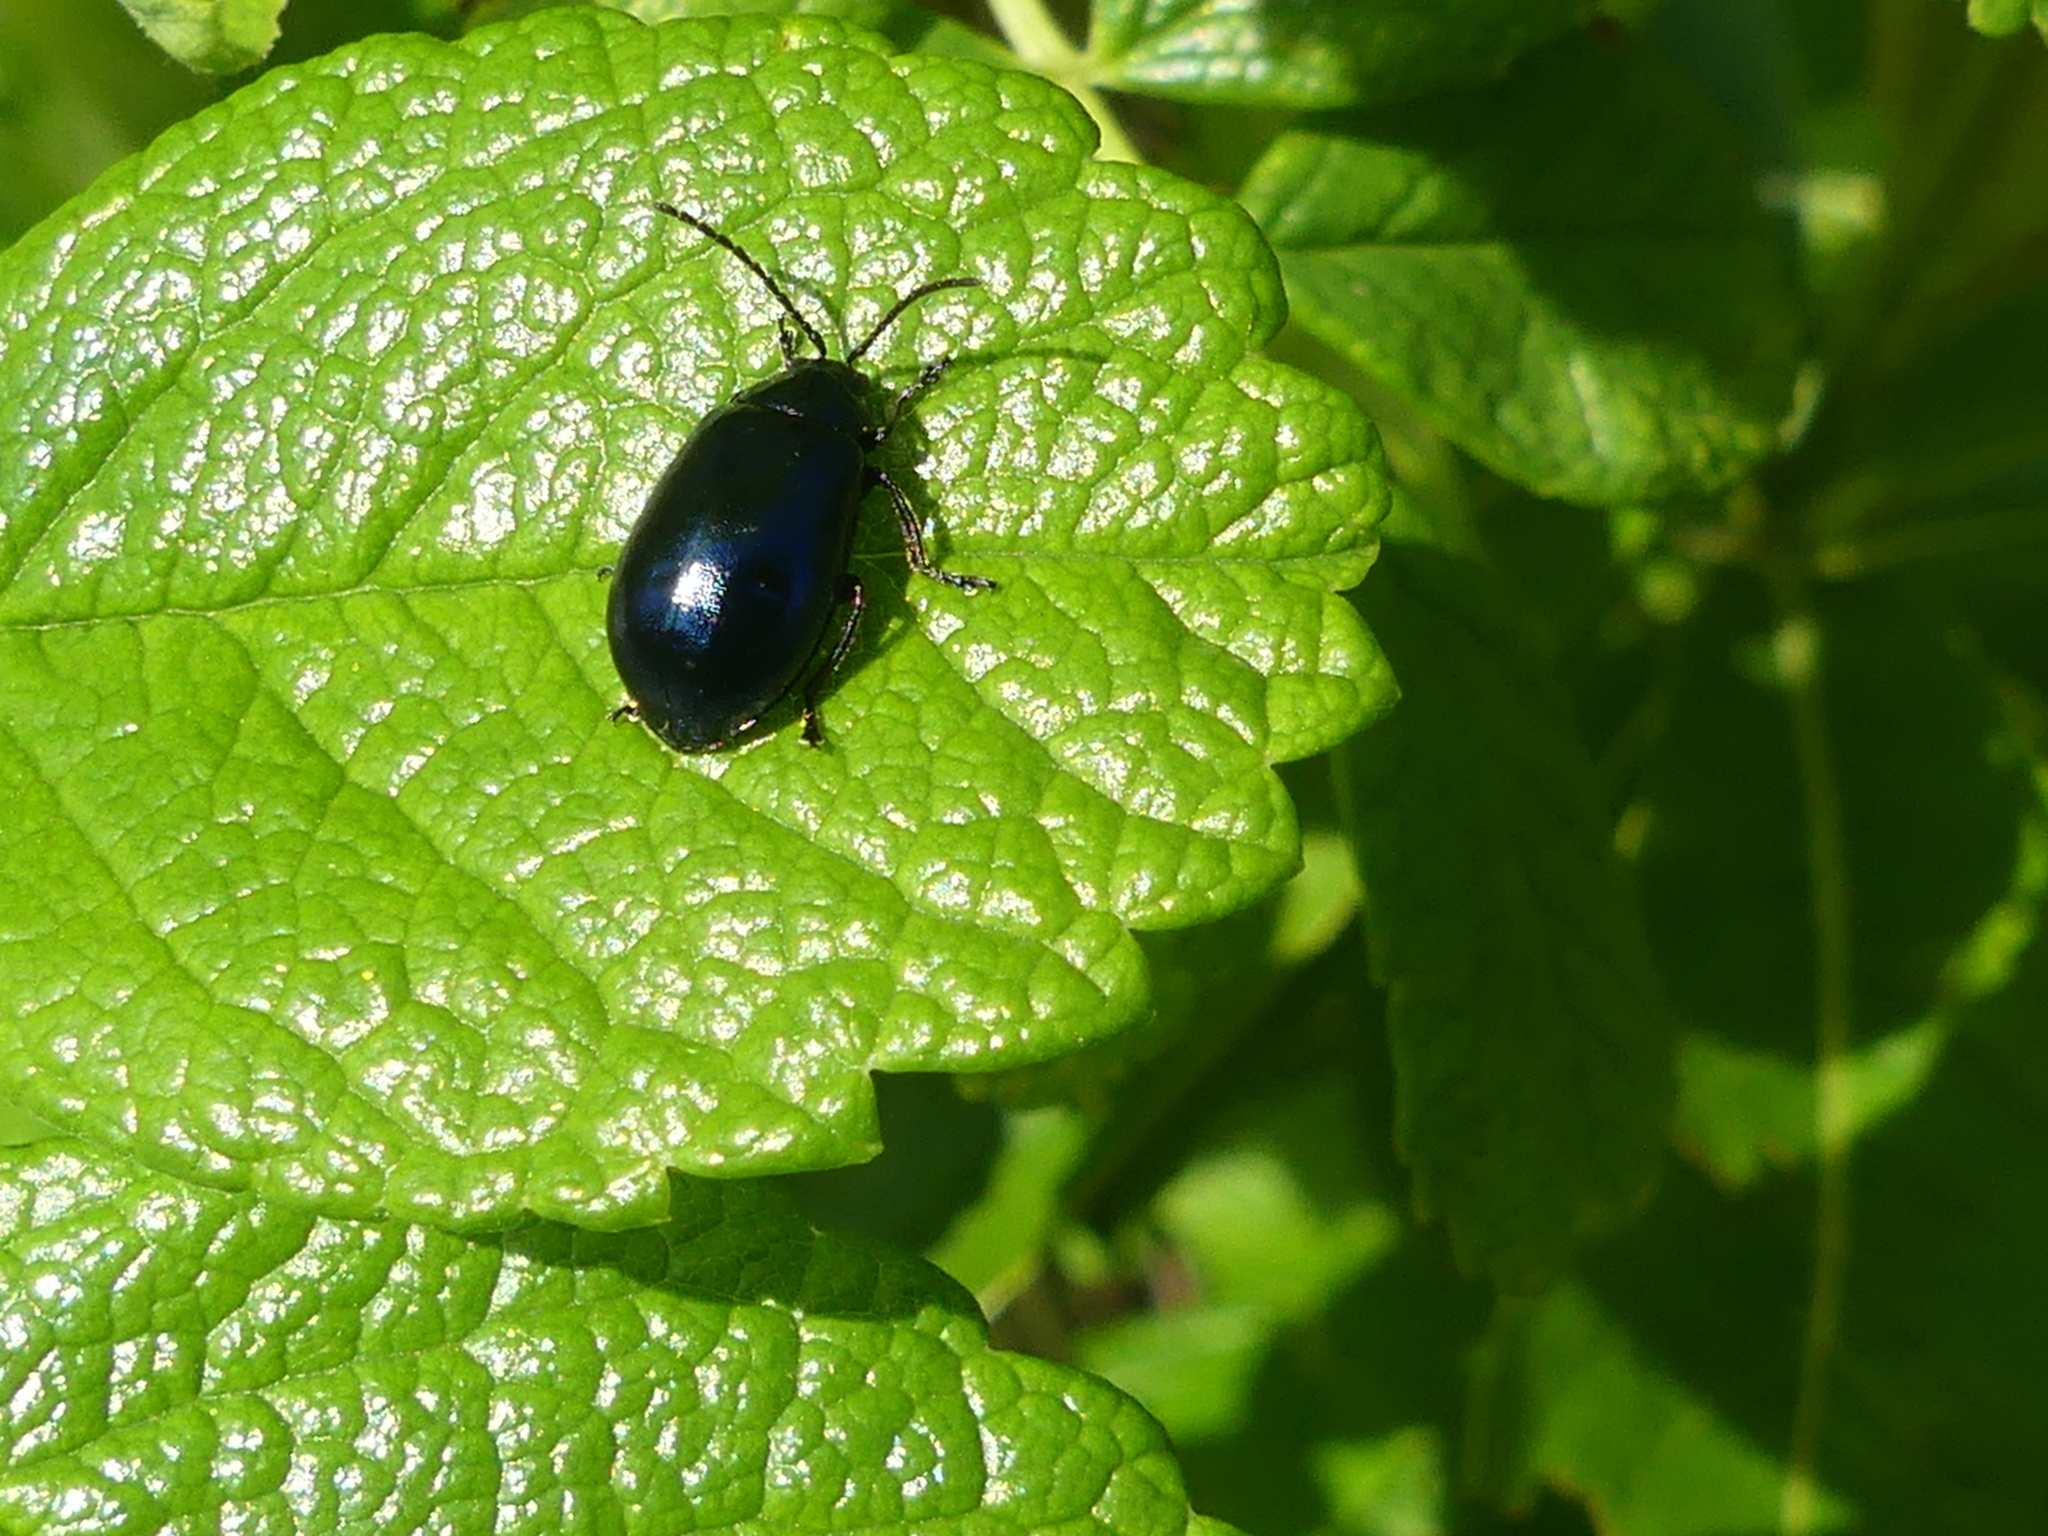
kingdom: Animalia
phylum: Arthropoda
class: Insecta
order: Coleoptera
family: Chrysomelidae
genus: Agelastica
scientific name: Agelastica alni
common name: Alder leaf beetle
